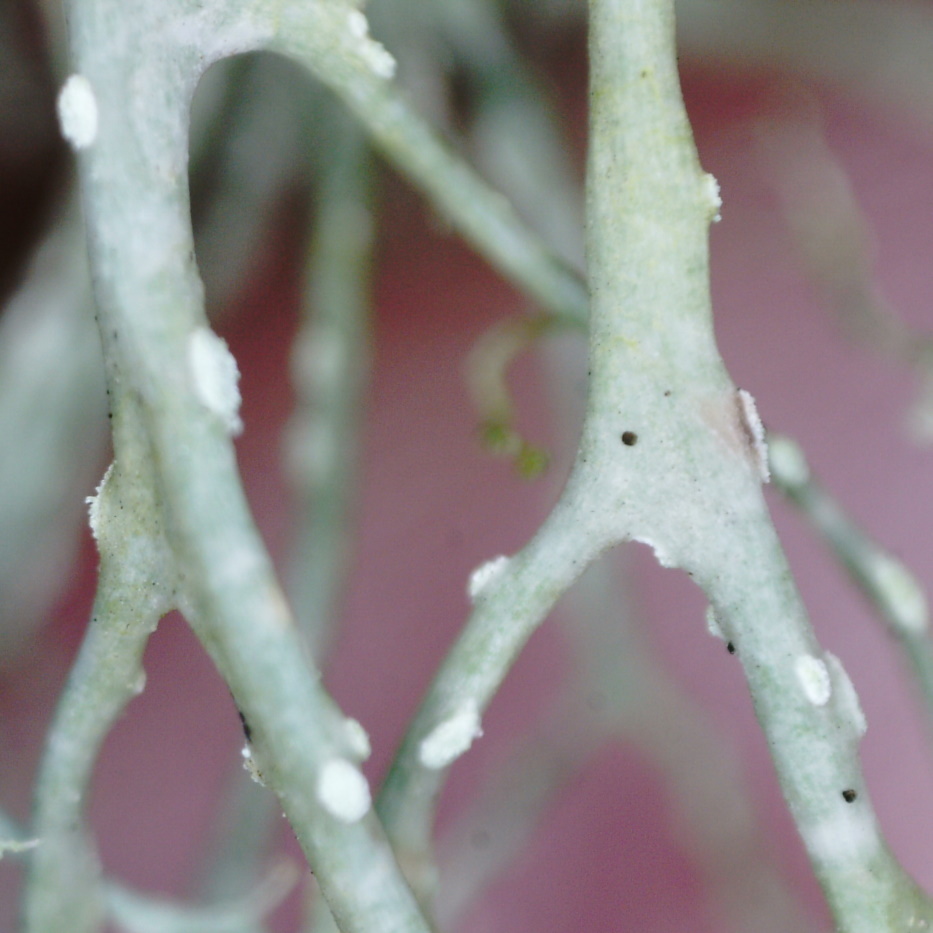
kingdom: Fungi
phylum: Ascomycota
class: Lecanoromycetes
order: Lecanorales
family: Ramalinaceae
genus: Ramalina
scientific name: Ramalina farinacea
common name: Farinose cartilage lichen
